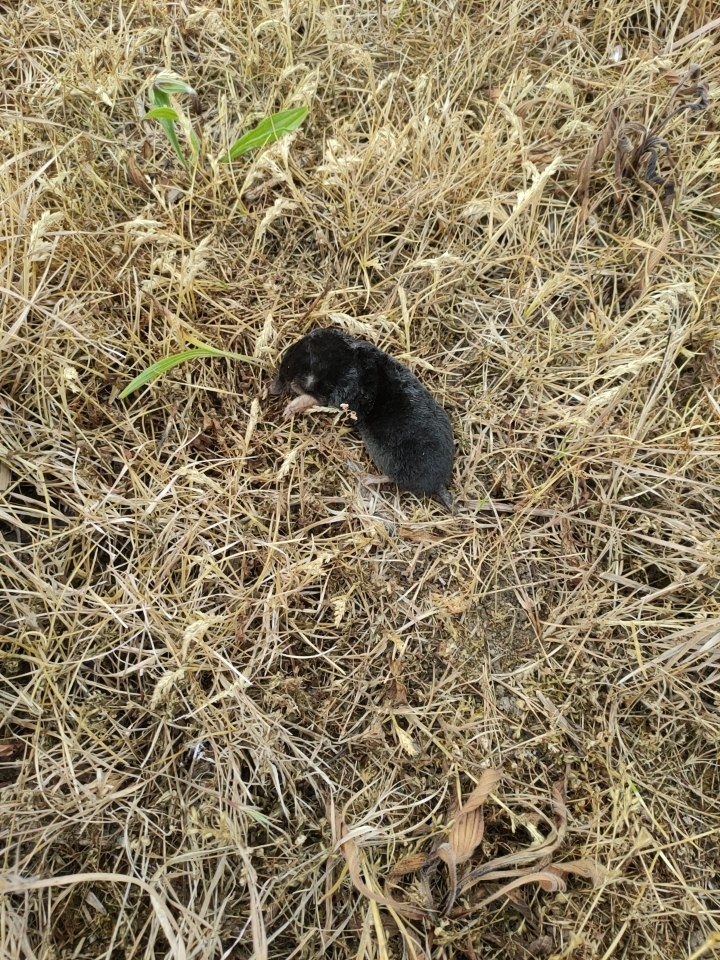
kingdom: Animalia
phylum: Chordata
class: Mammalia
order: Soricomorpha
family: Talpidae
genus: Talpa
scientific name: Talpa europaea
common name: European mole
